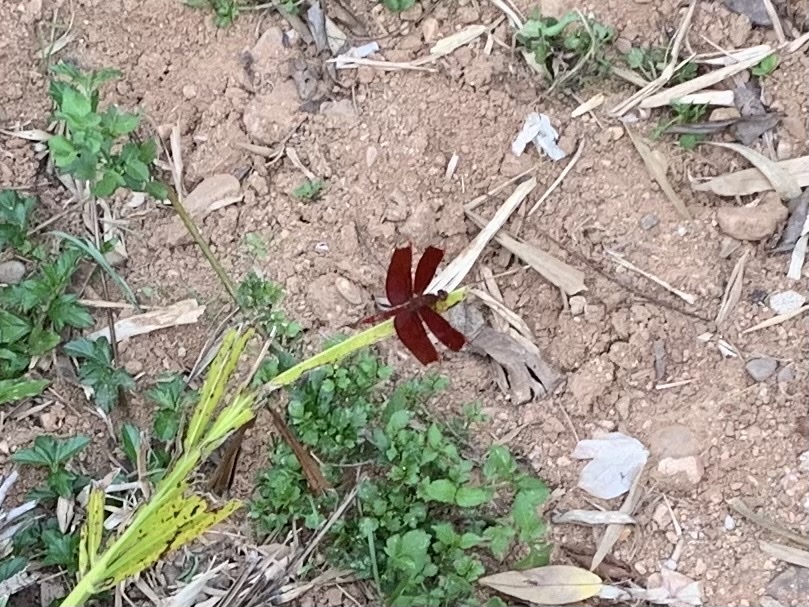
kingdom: Animalia
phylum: Arthropoda
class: Insecta
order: Odonata
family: Libellulidae
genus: Neurothemis
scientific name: Neurothemis fulvia
